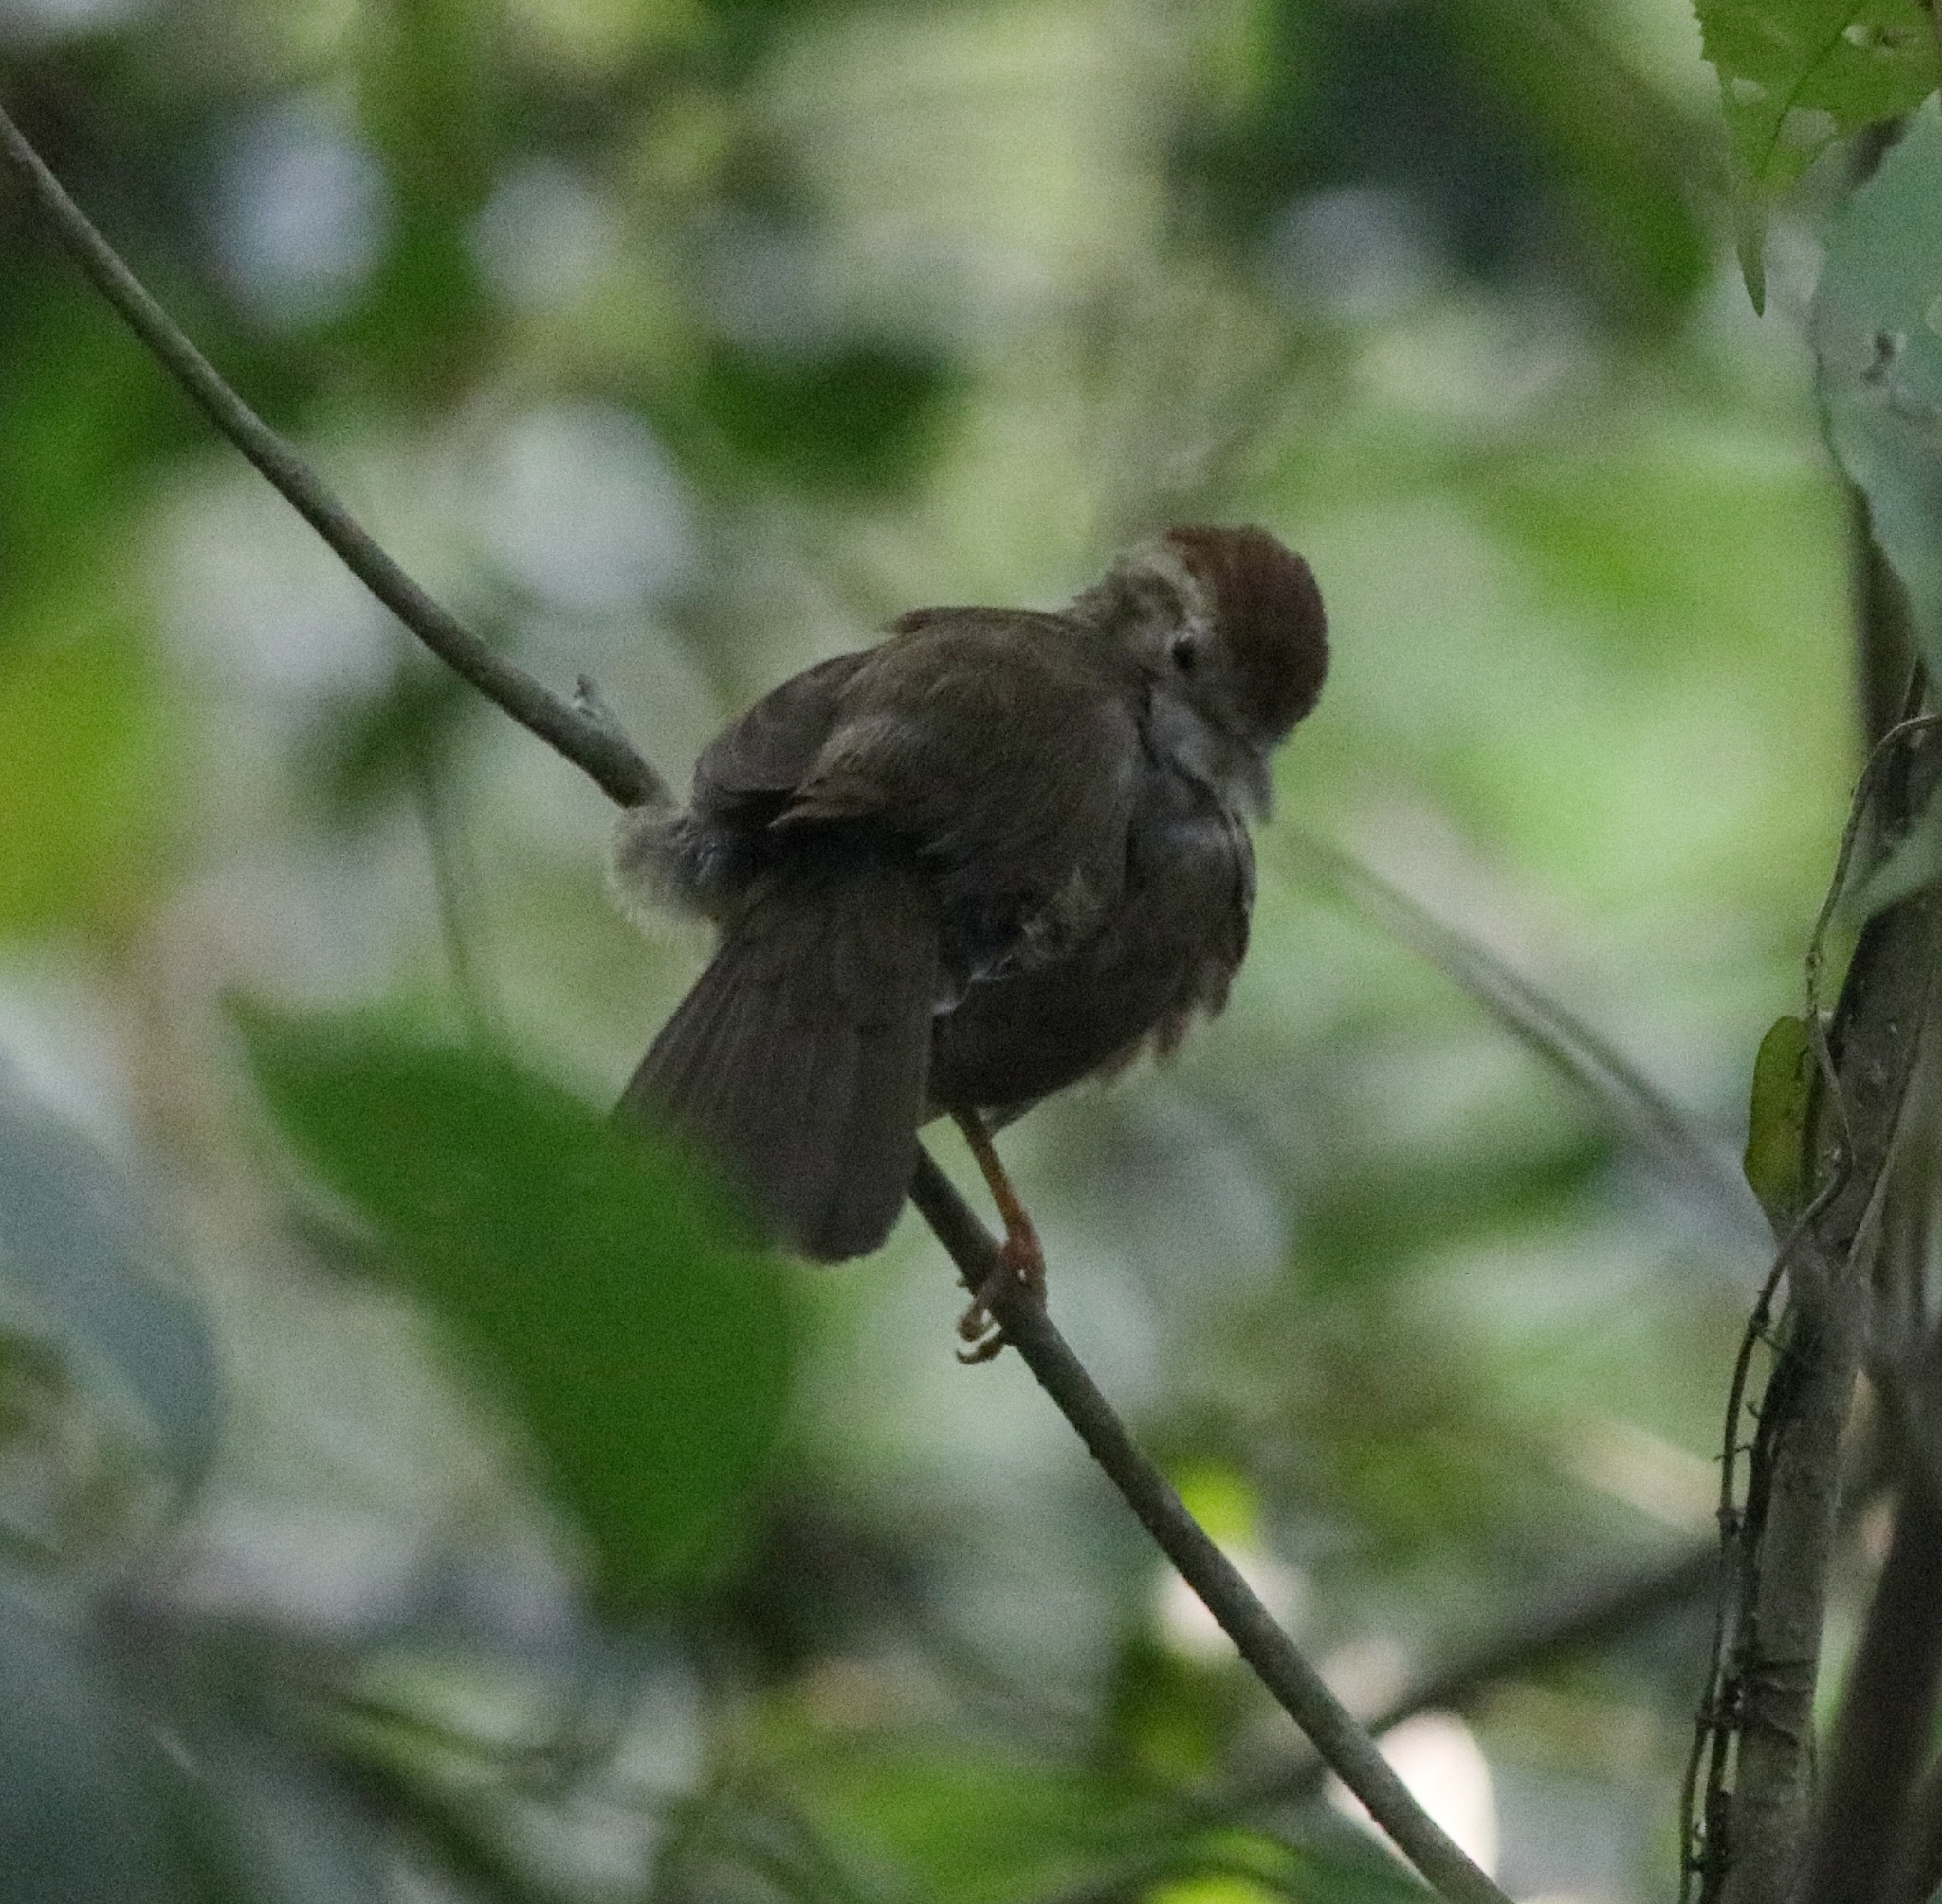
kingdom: Animalia
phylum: Chordata
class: Aves
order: Passeriformes
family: Pellorneidae
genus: Pellorneum
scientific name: Pellorneum ruficeps
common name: Puff-throated babbler
